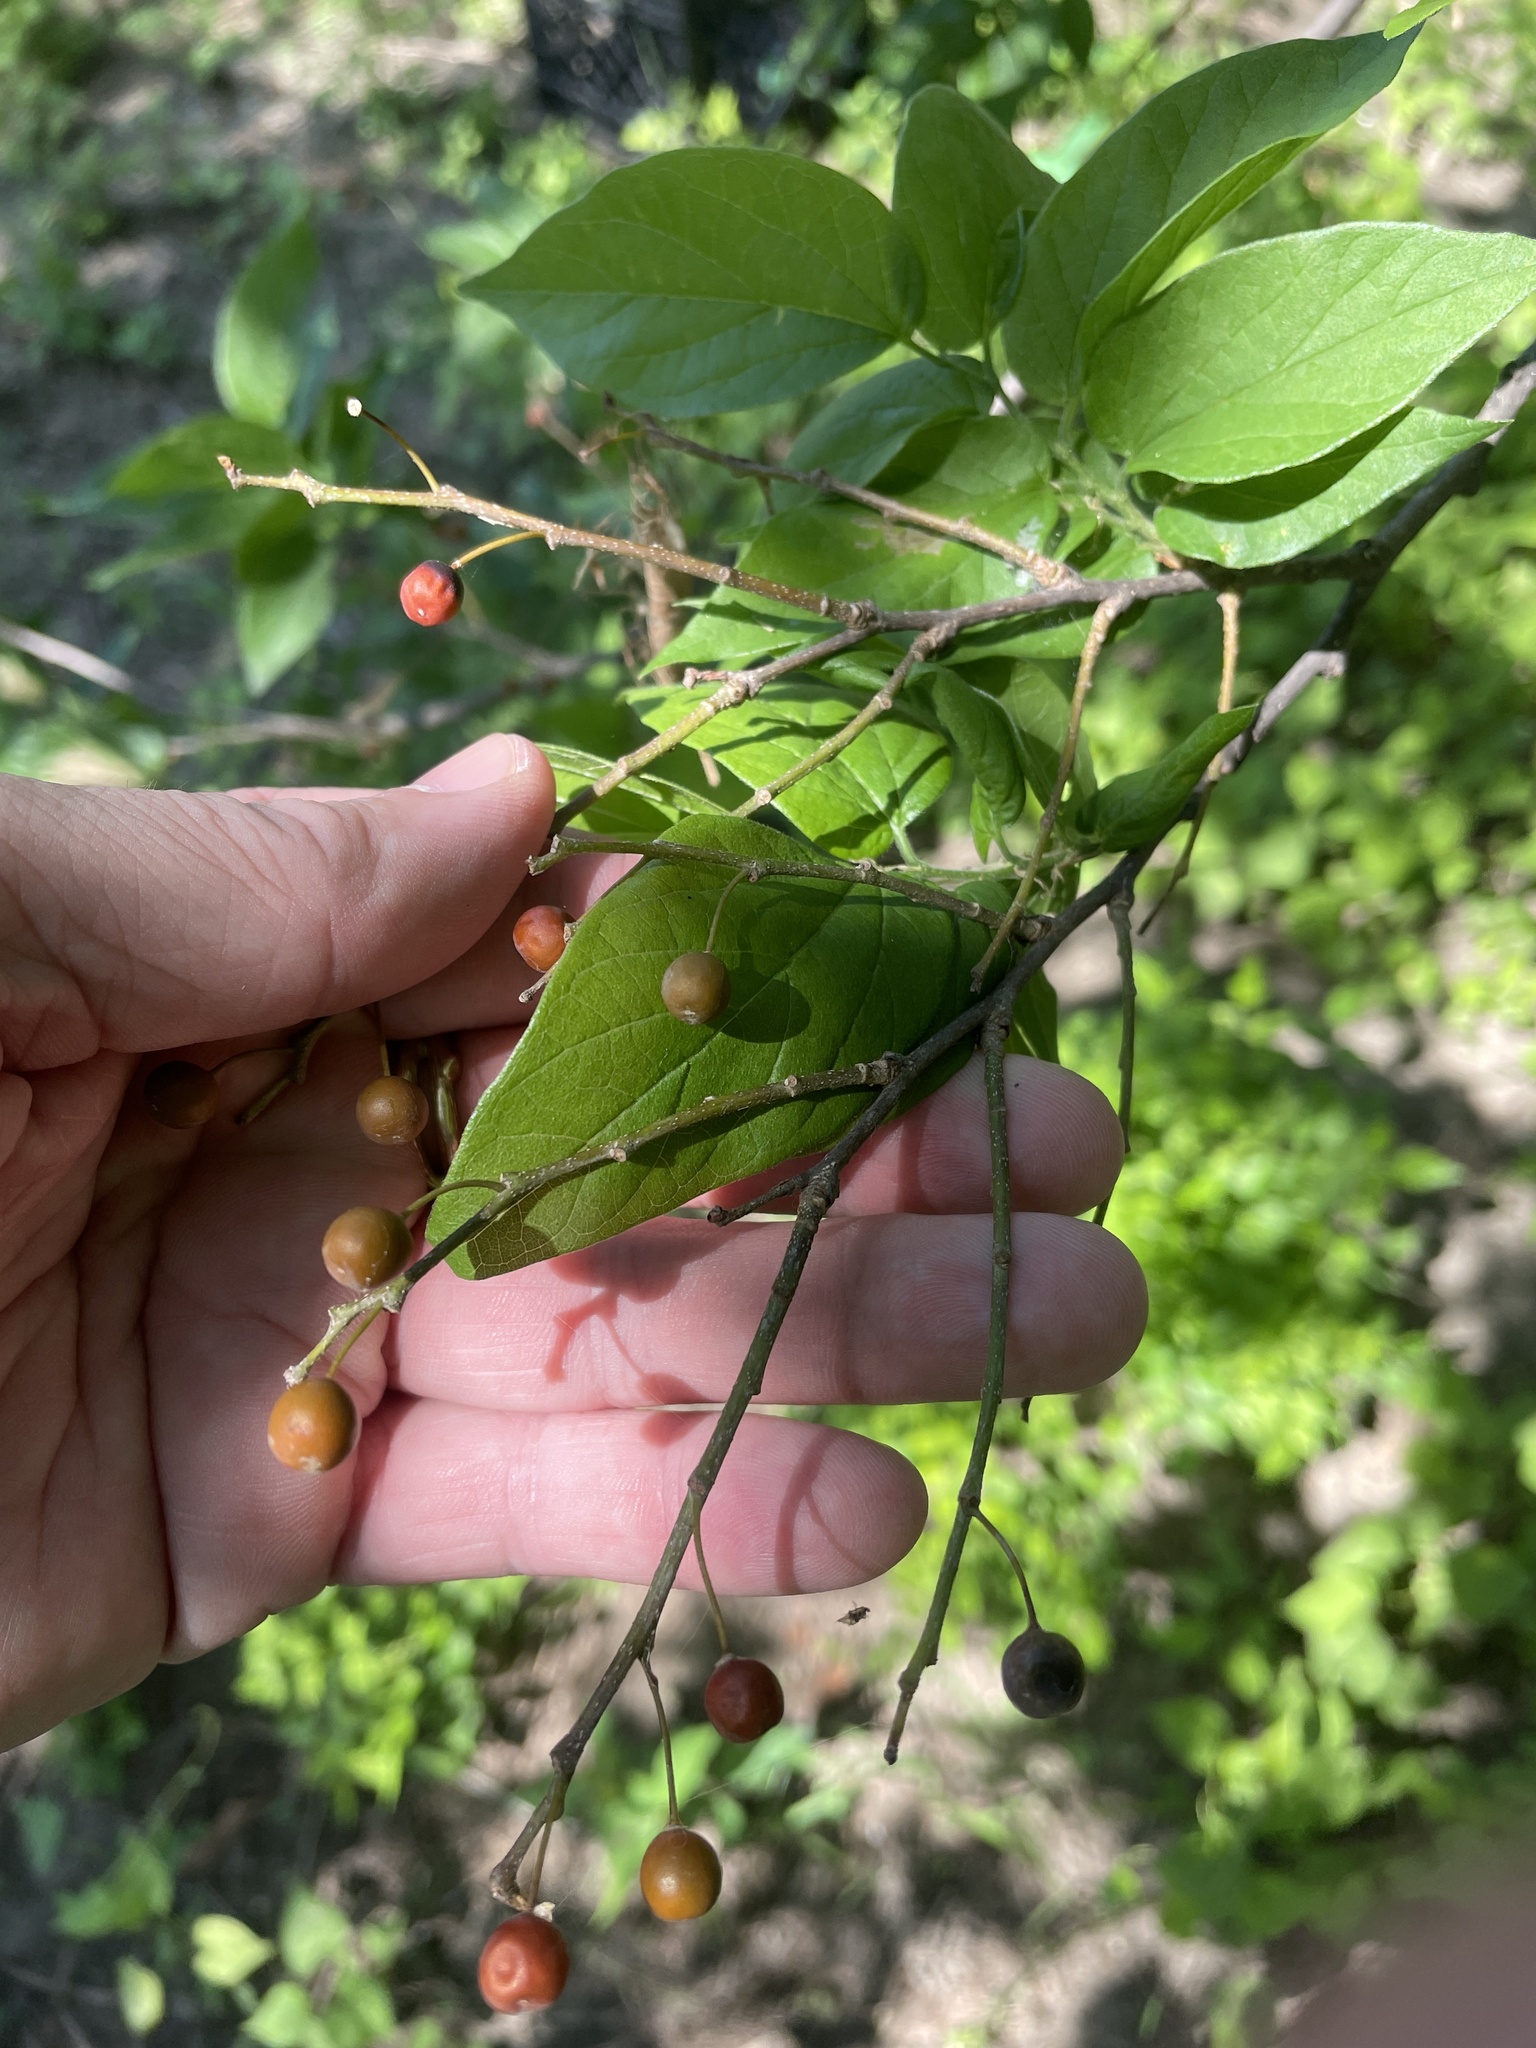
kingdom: Plantae
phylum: Tracheophyta
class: Magnoliopsida
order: Rosales
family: Cannabaceae
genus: Celtis
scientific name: Celtis laevigata
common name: Sugarberry
